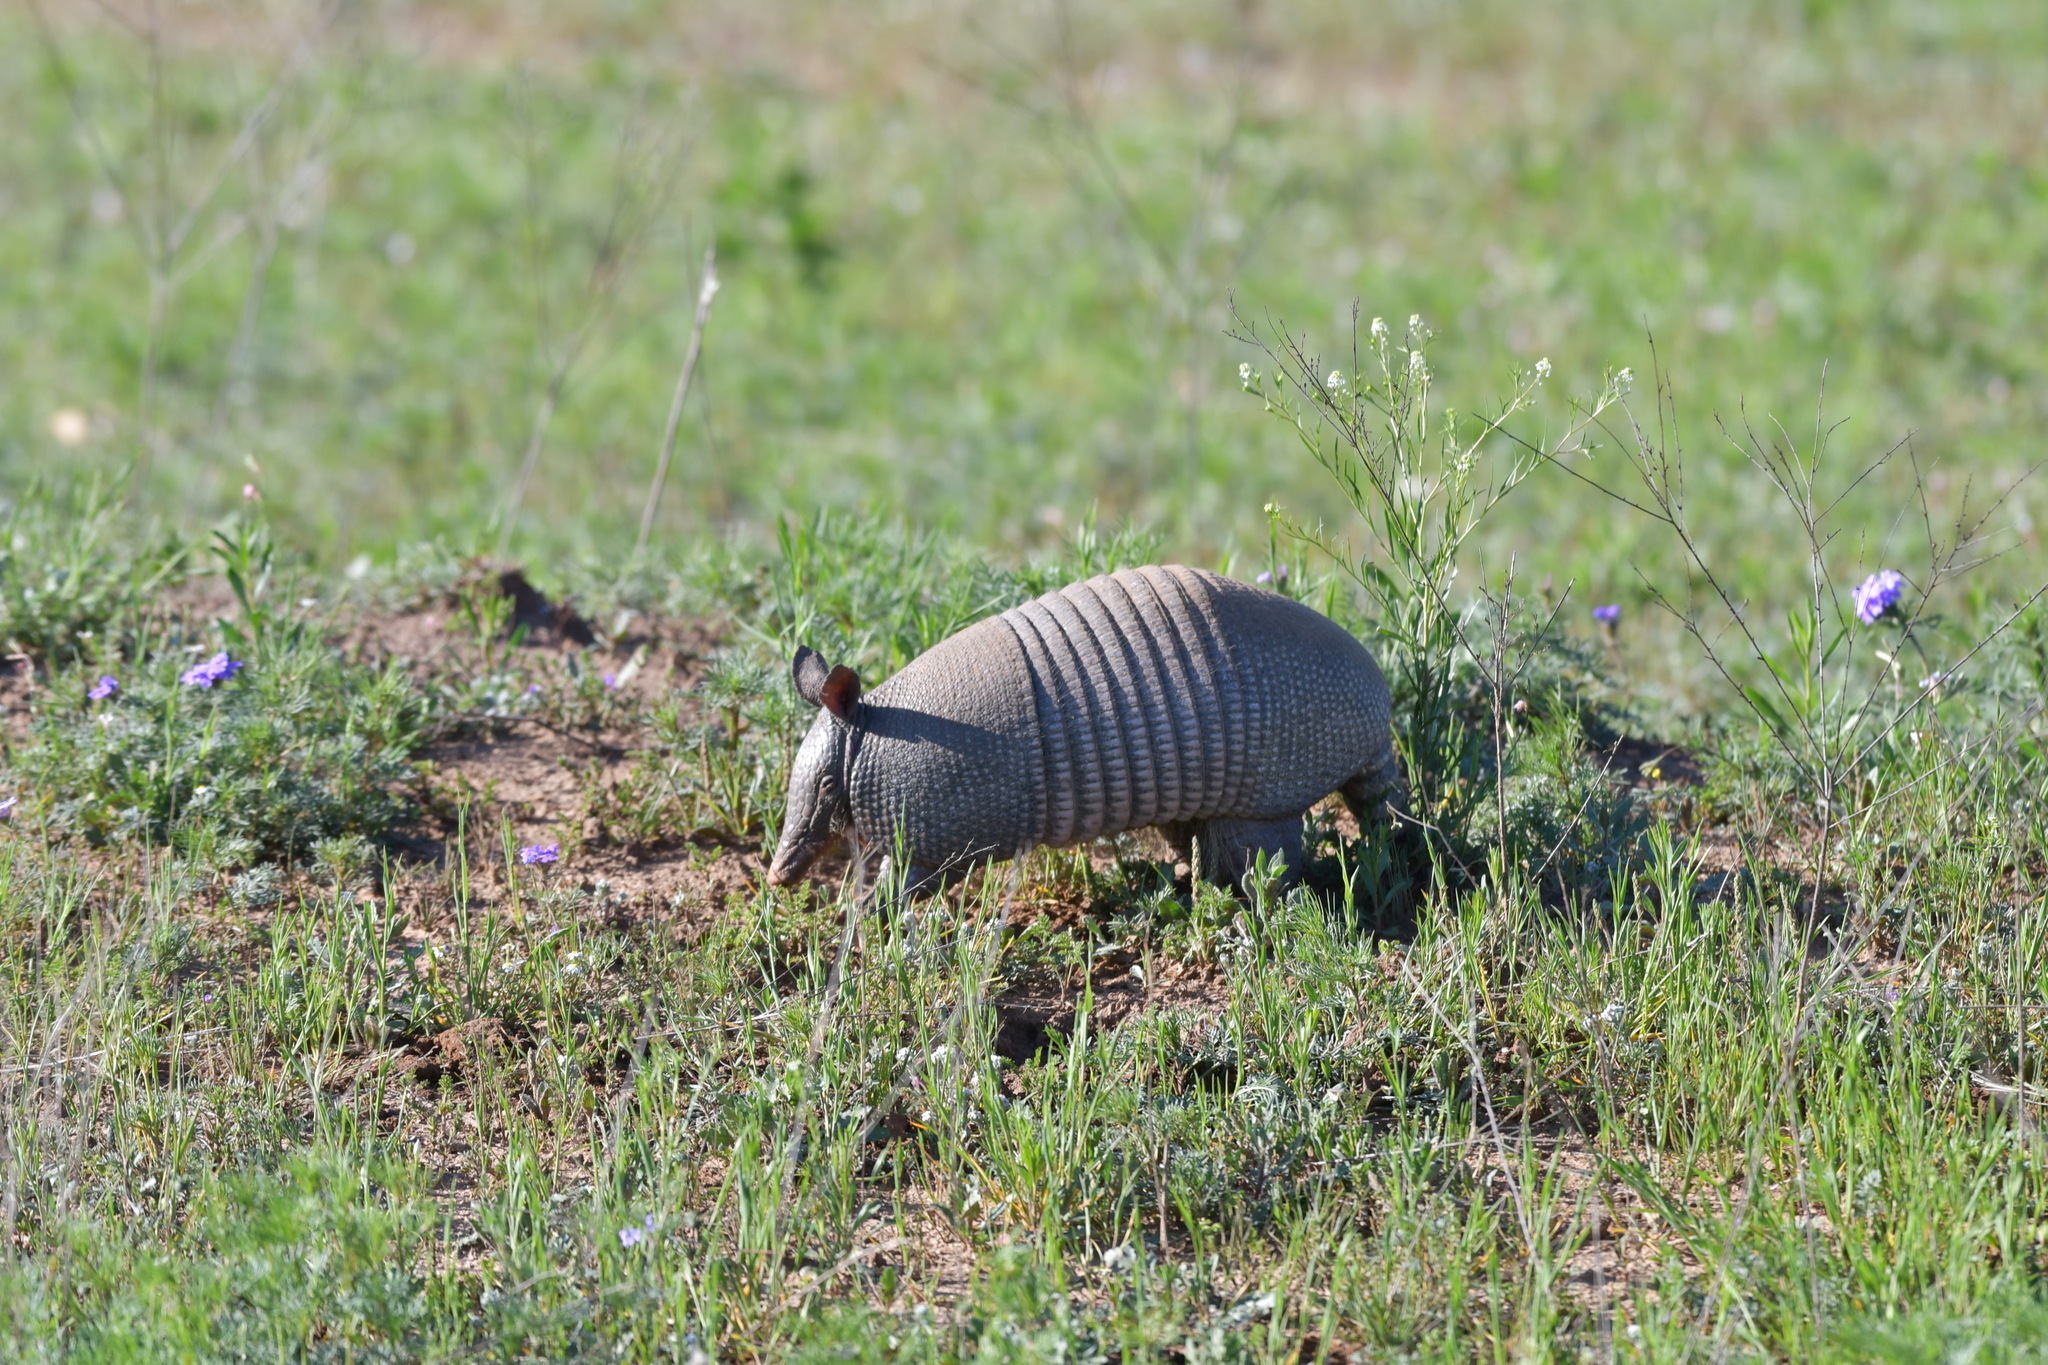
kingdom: Animalia
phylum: Chordata
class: Mammalia
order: Cingulata
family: Dasypodidae
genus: Dasypus
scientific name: Dasypus novemcinctus
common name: Nine-banded armadillo
